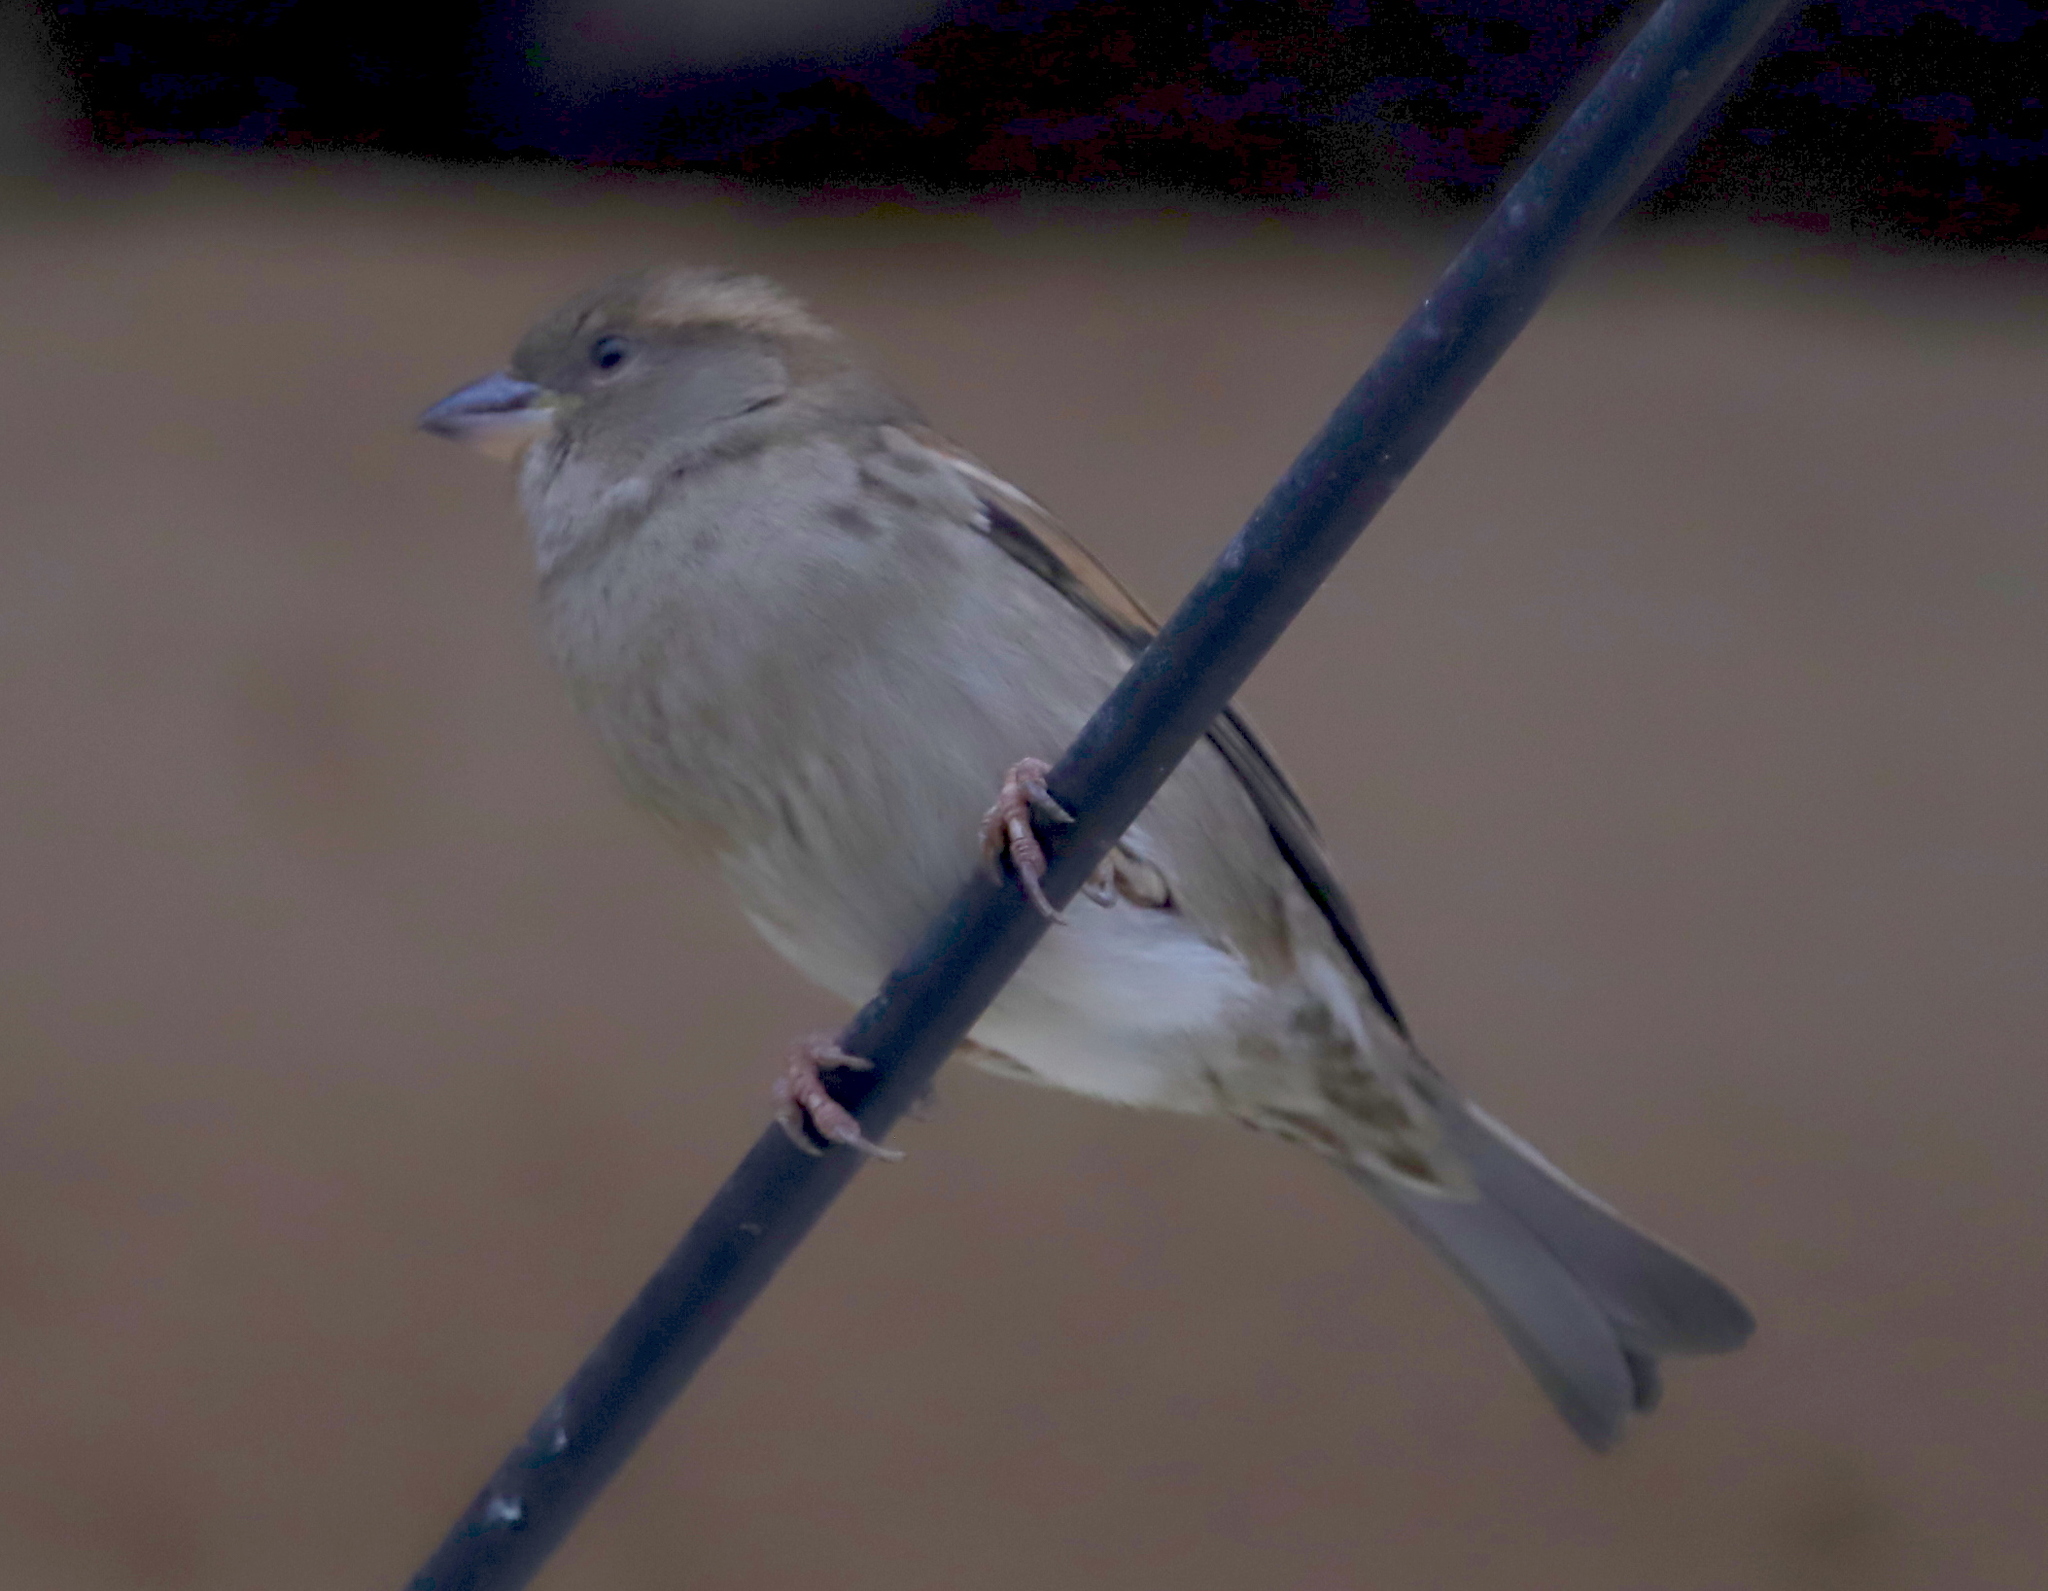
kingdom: Animalia
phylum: Chordata
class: Aves
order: Passeriformes
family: Passeridae
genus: Passer
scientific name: Passer domesticus
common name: House sparrow
